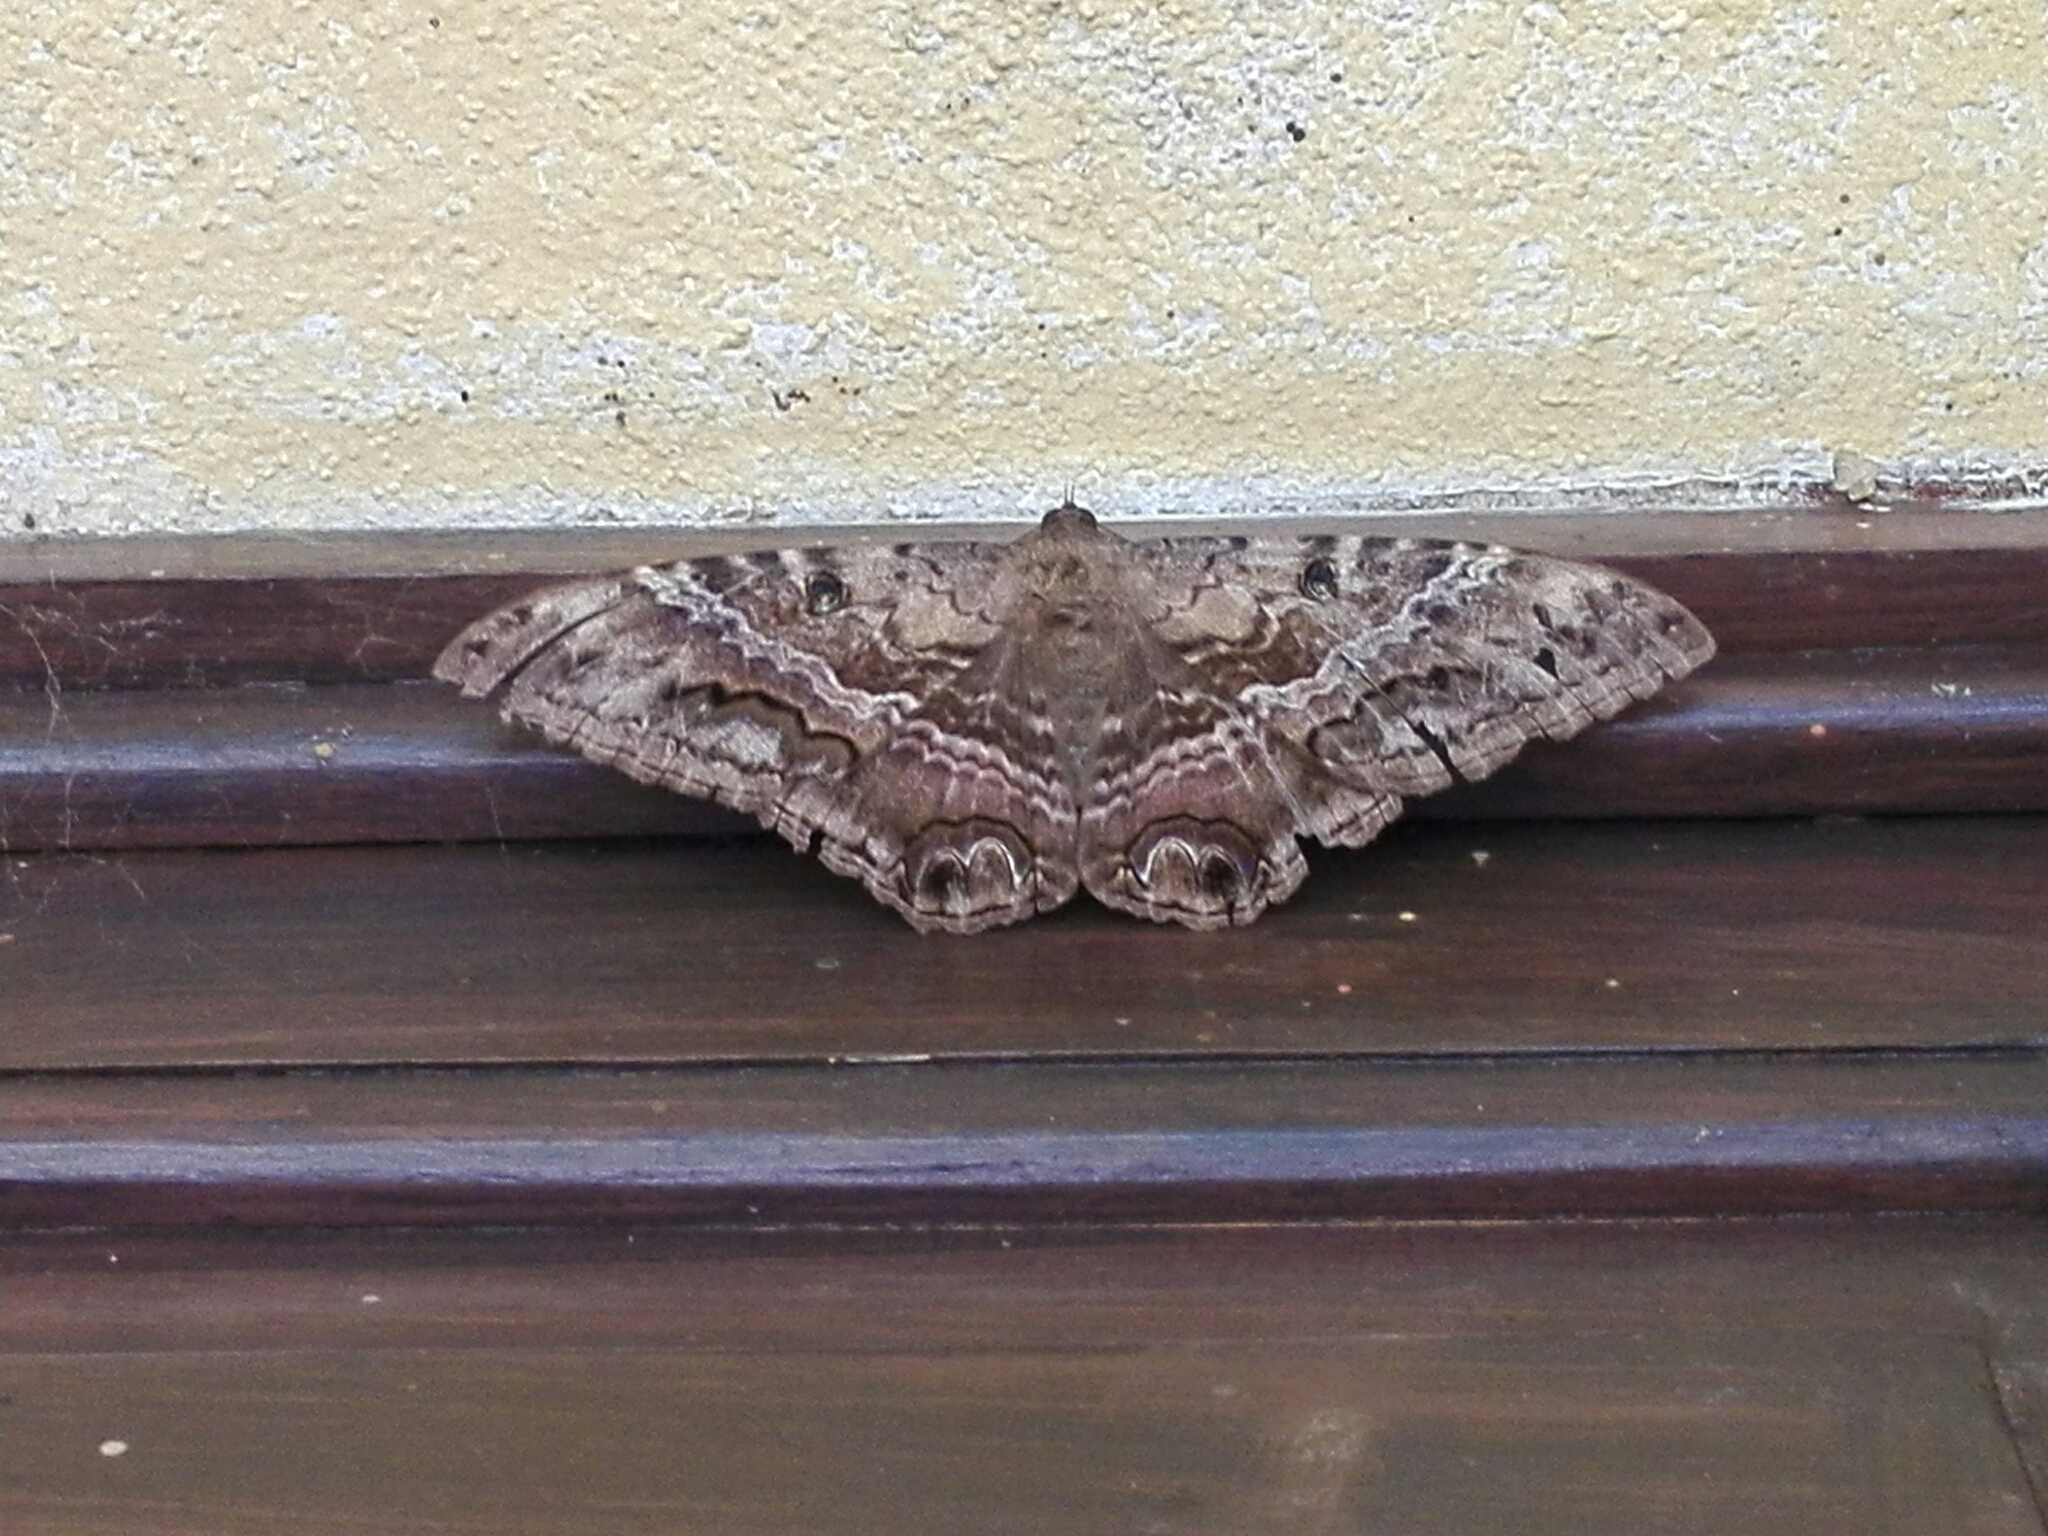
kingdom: Animalia
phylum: Arthropoda
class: Insecta
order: Lepidoptera
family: Erebidae
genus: Ascalapha
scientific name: Ascalapha odorata
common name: Black witch
